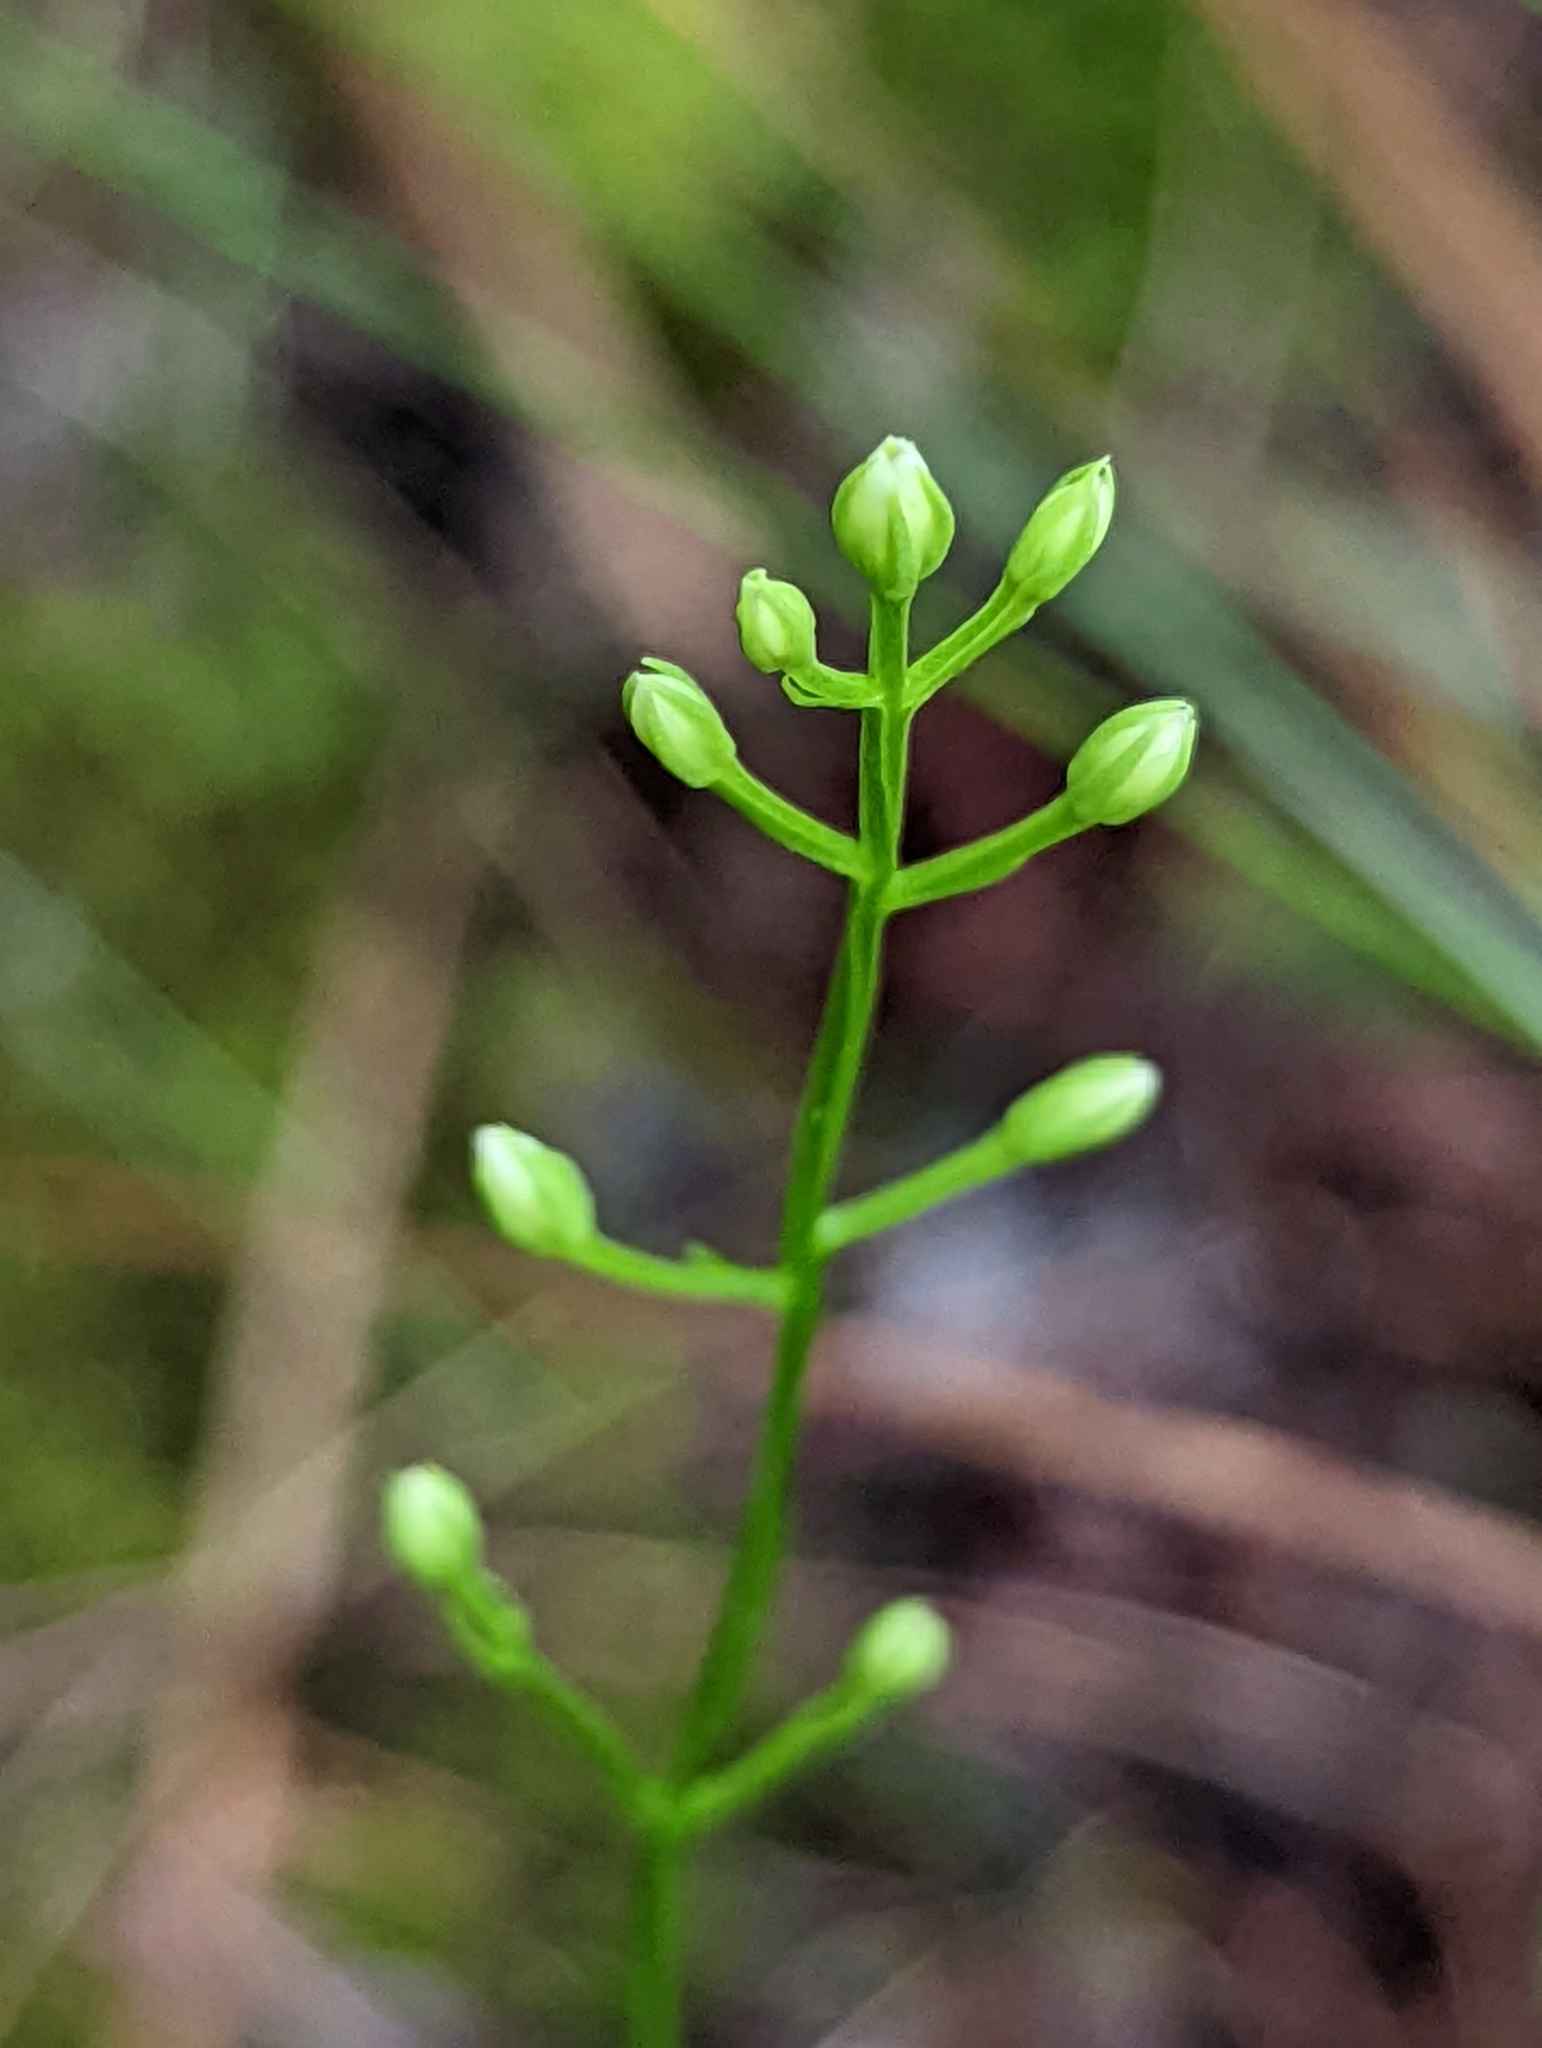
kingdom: Plantae
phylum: Tracheophyta
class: Magnoliopsida
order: Gentianales
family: Gentianaceae
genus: Bartonia
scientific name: Bartonia virginica
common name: Yellow bartonia
